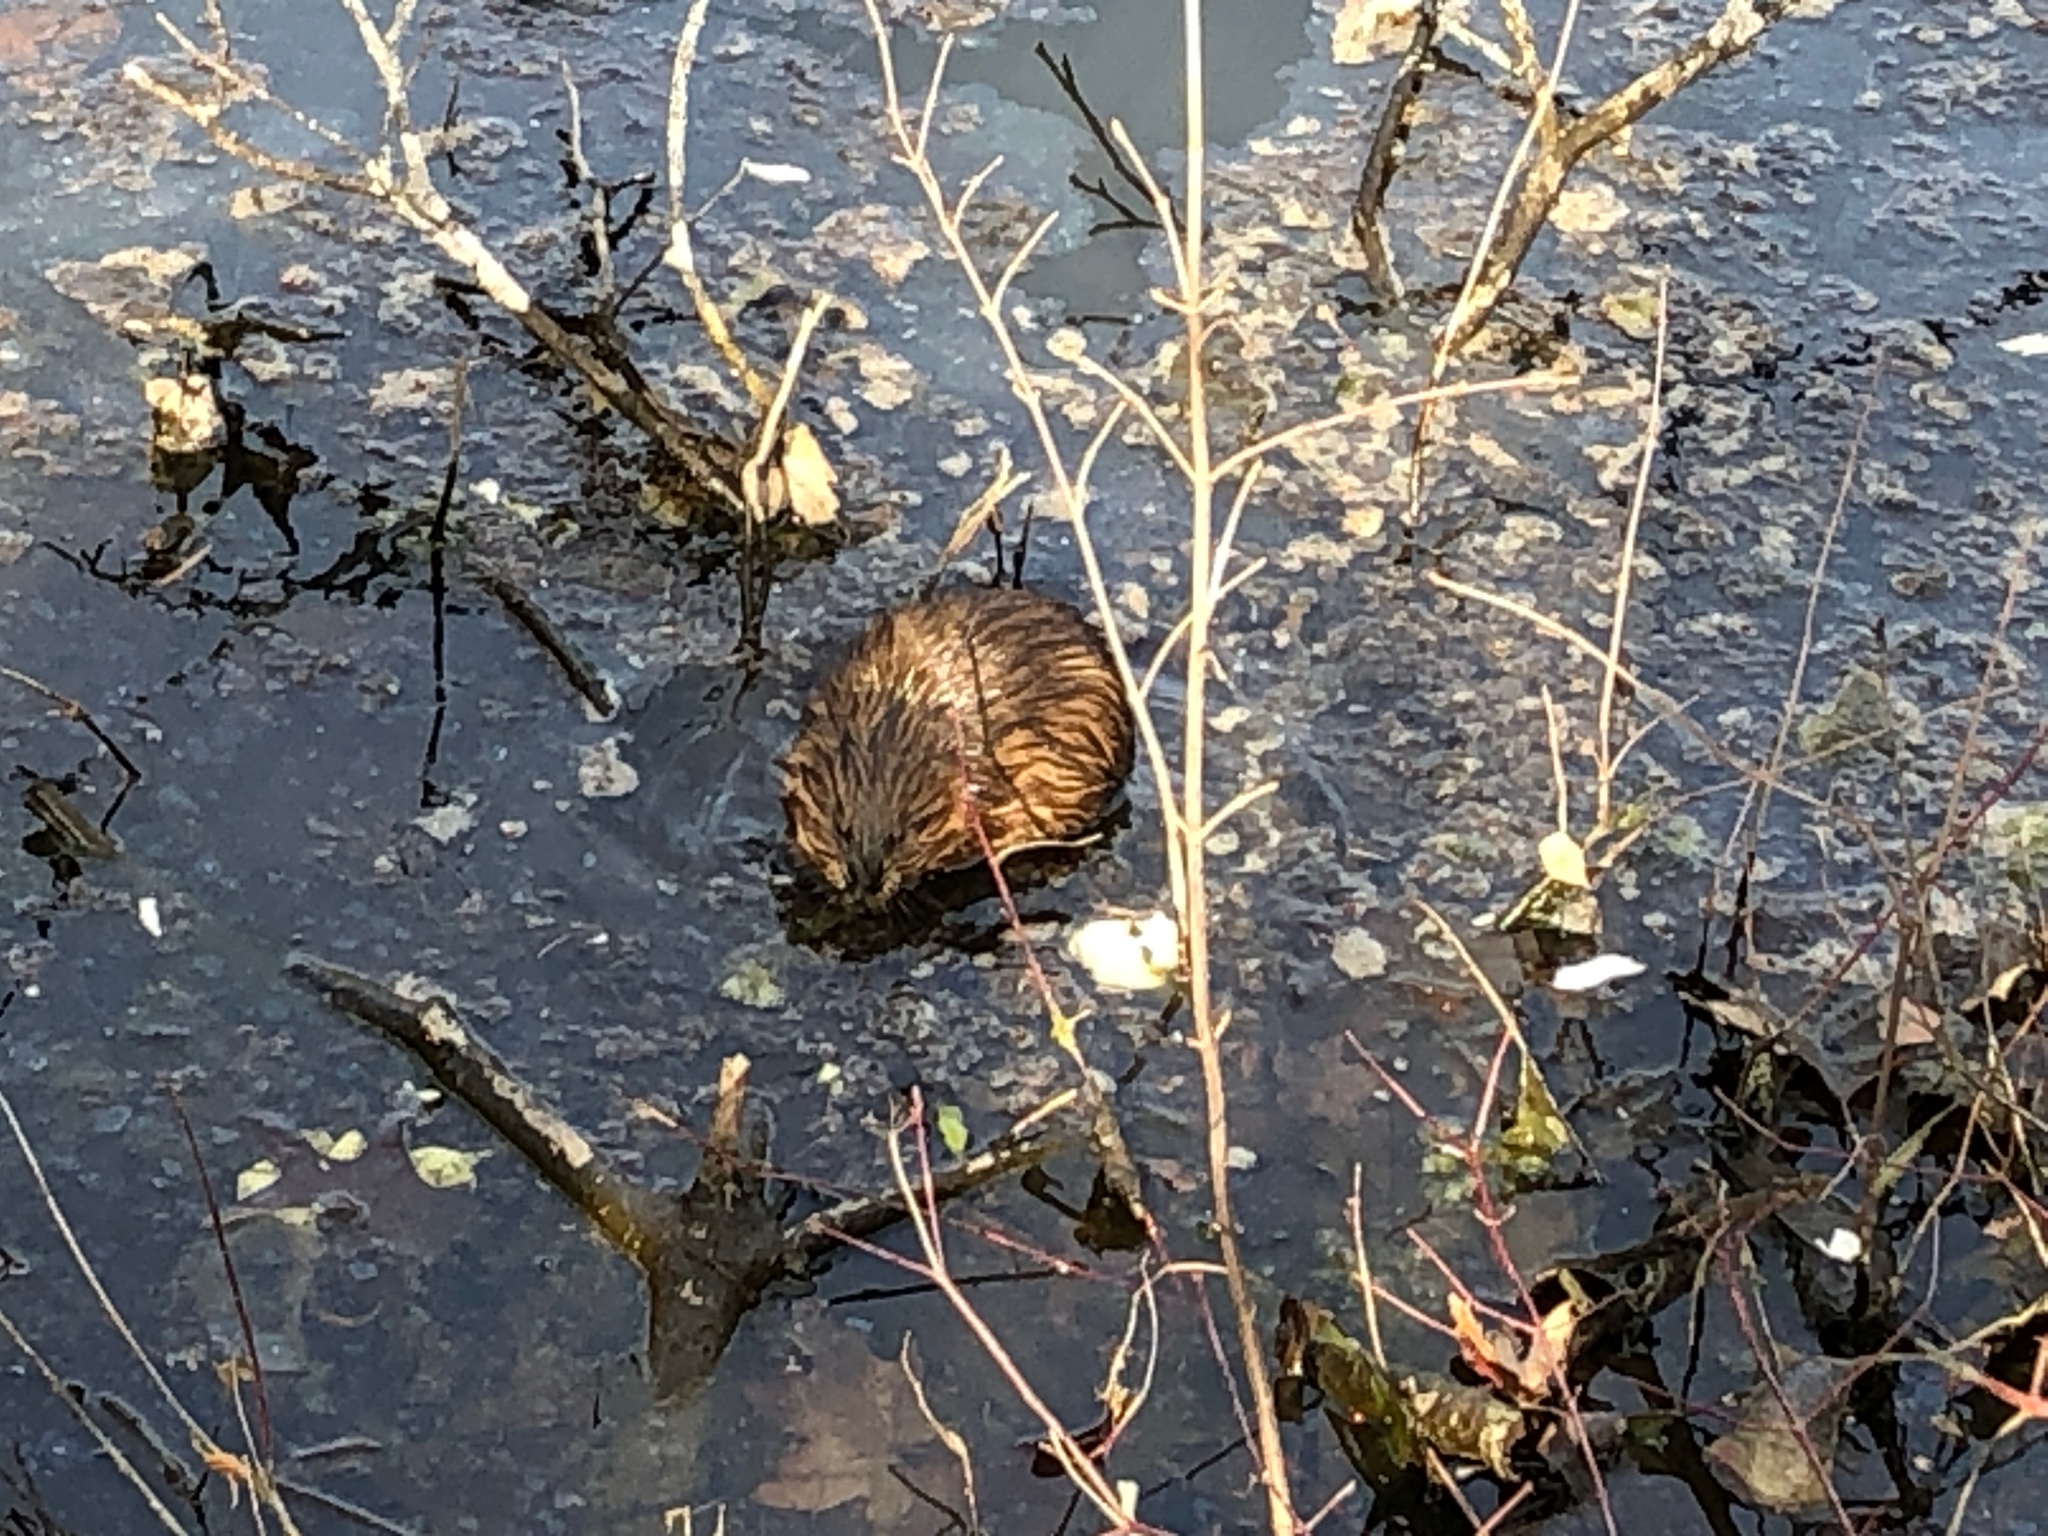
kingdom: Animalia
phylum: Chordata
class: Mammalia
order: Rodentia
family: Cricetidae
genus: Ondatra
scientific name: Ondatra zibethicus
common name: Muskrat
